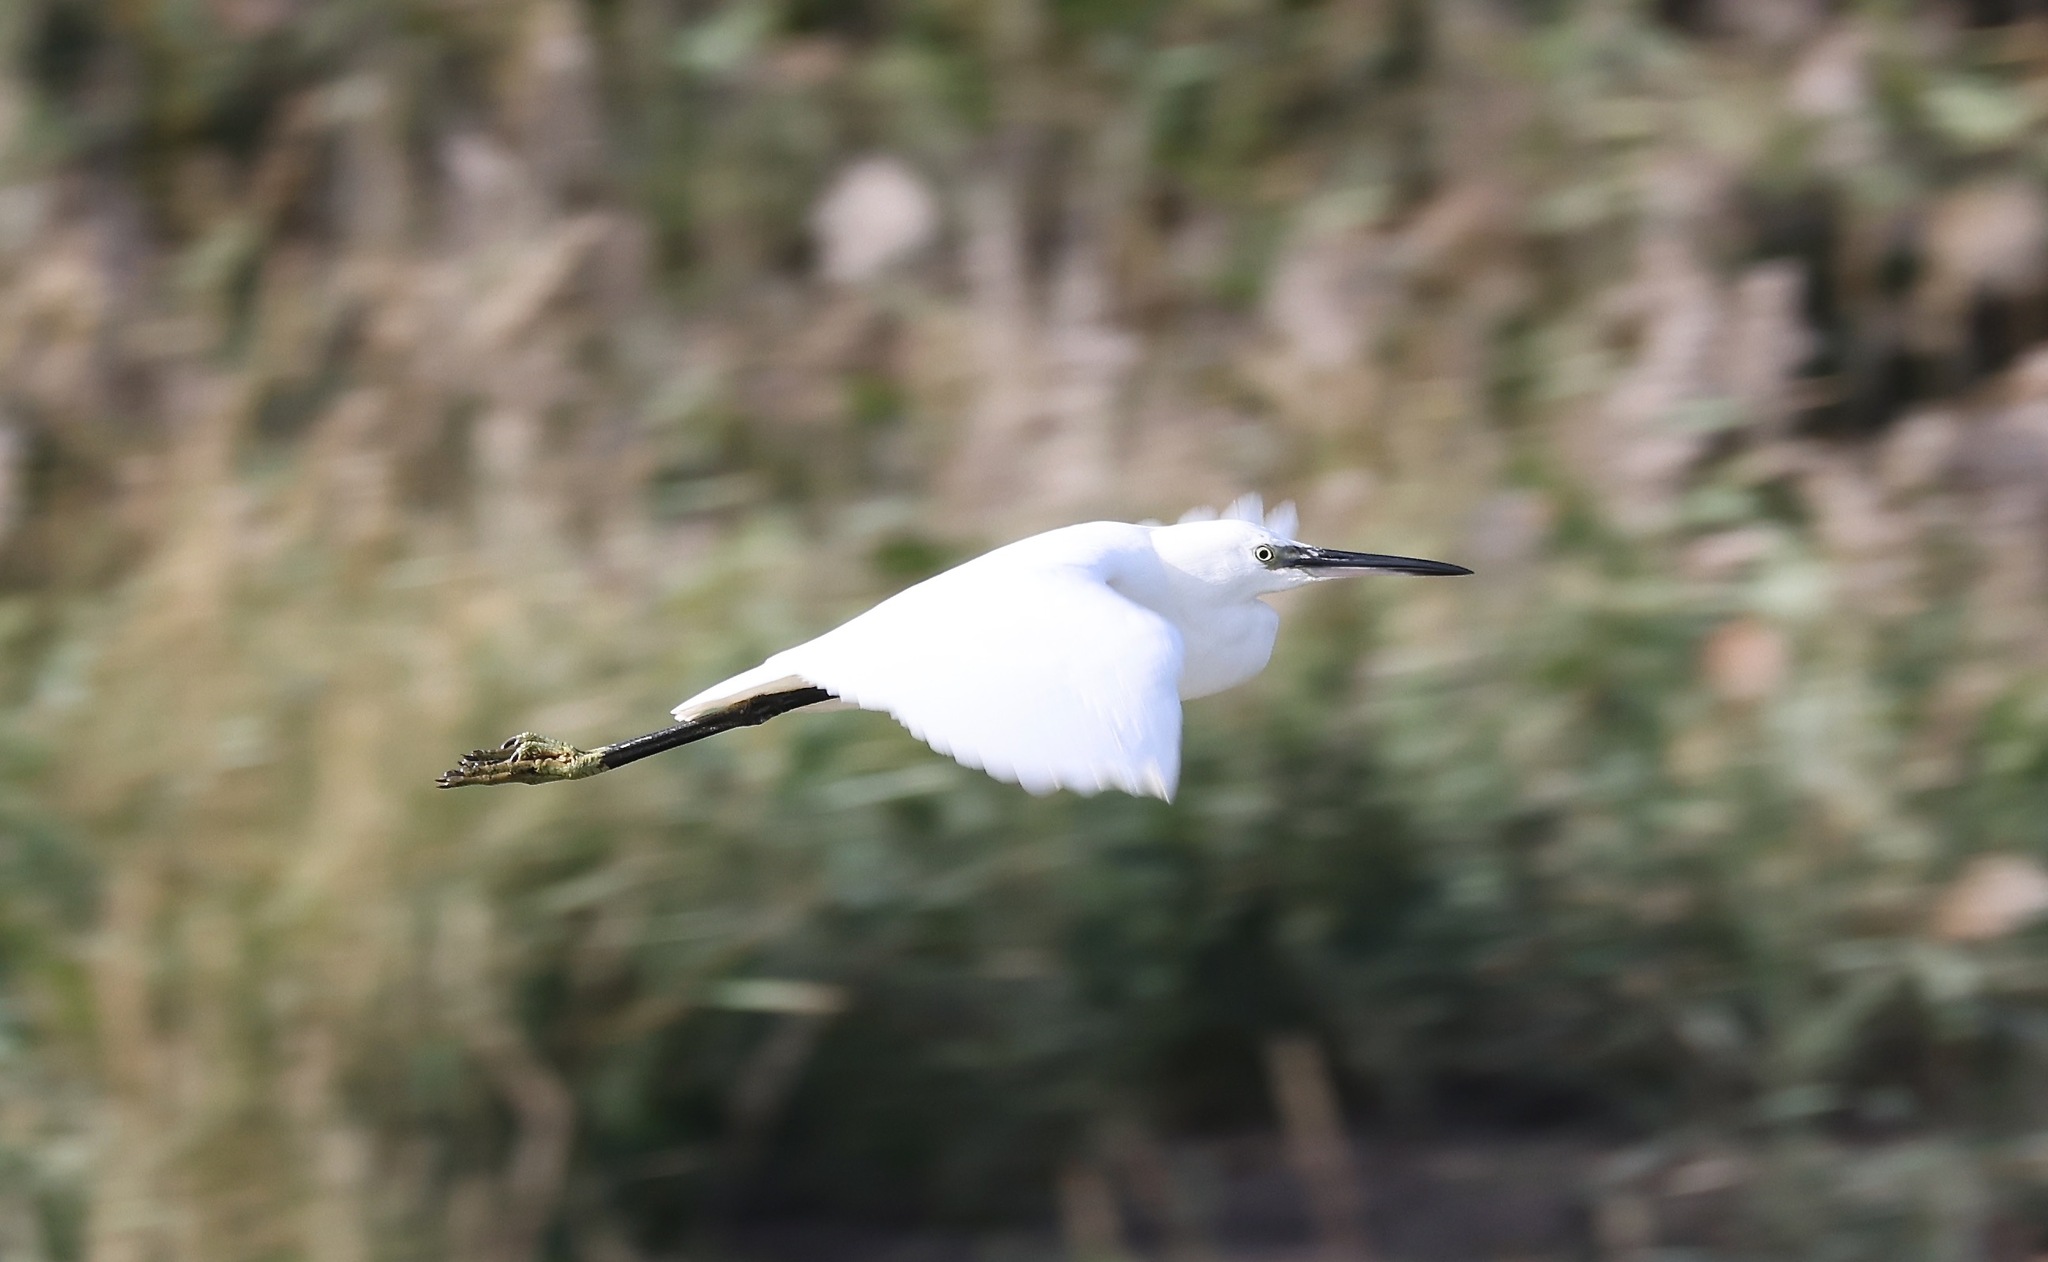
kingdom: Animalia
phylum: Chordata
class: Aves
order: Pelecaniformes
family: Ardeidae
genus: Egretta
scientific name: Egretta garzetta
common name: Little egret
